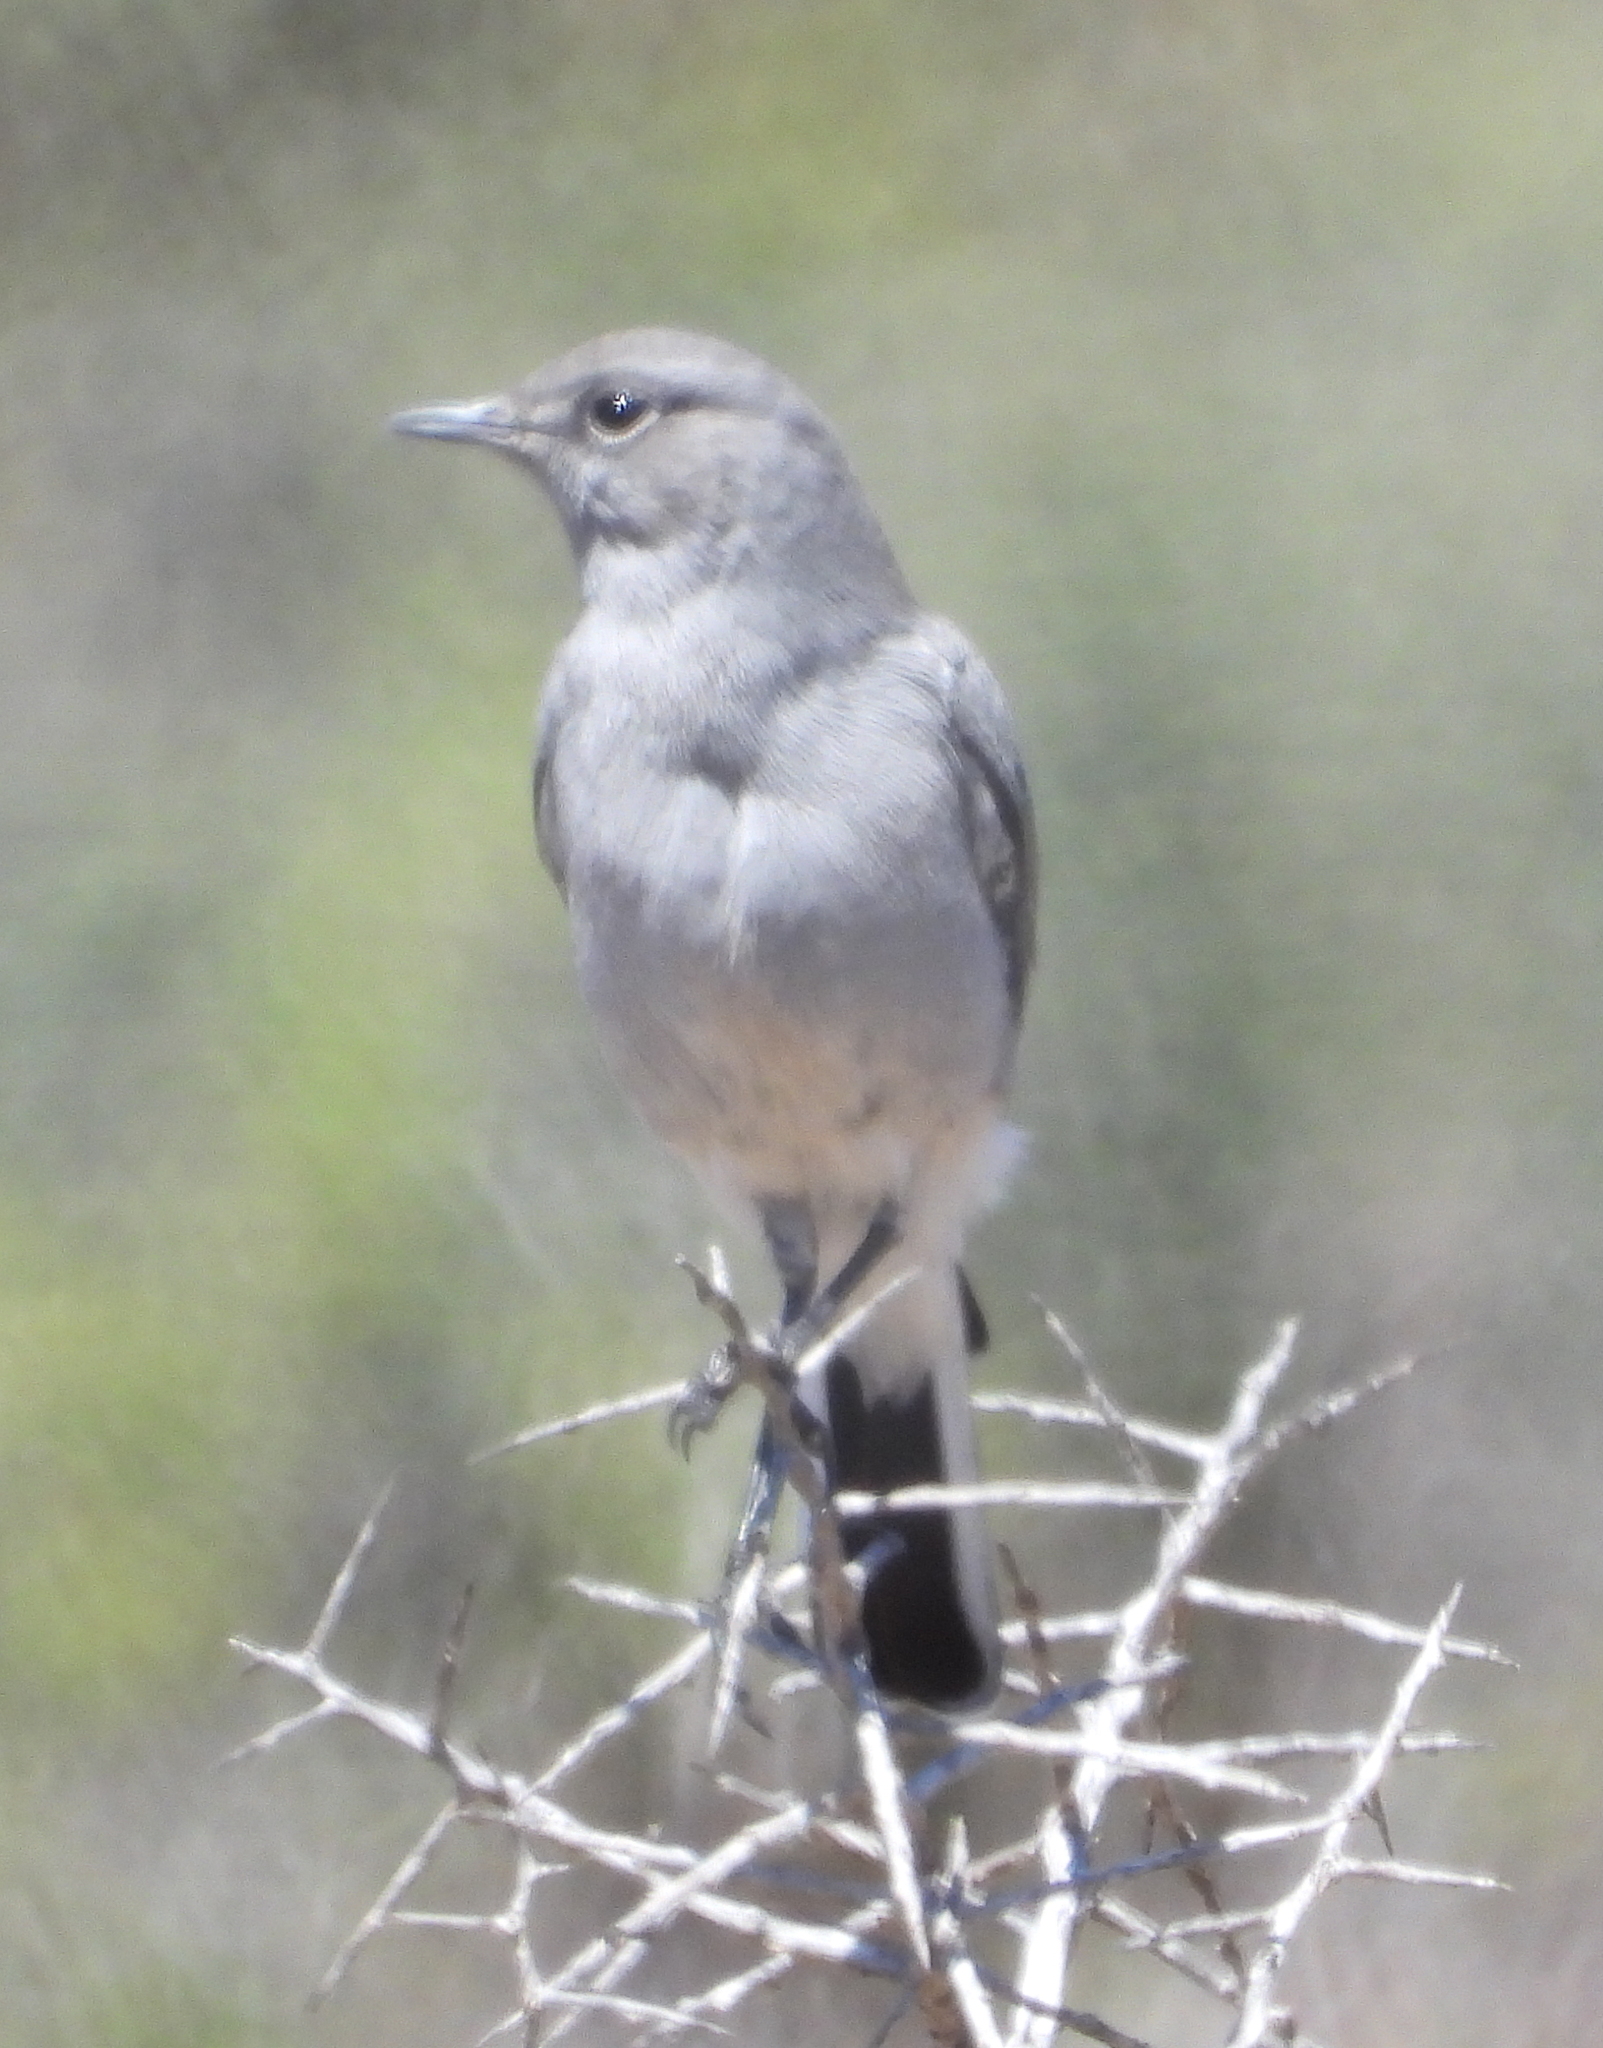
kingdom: Animalia
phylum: Chordata
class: Aves
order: Passeriformes
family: Muscicapidae
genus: Emarginata
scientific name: Emarginata schlegelii
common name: Karoo chat
